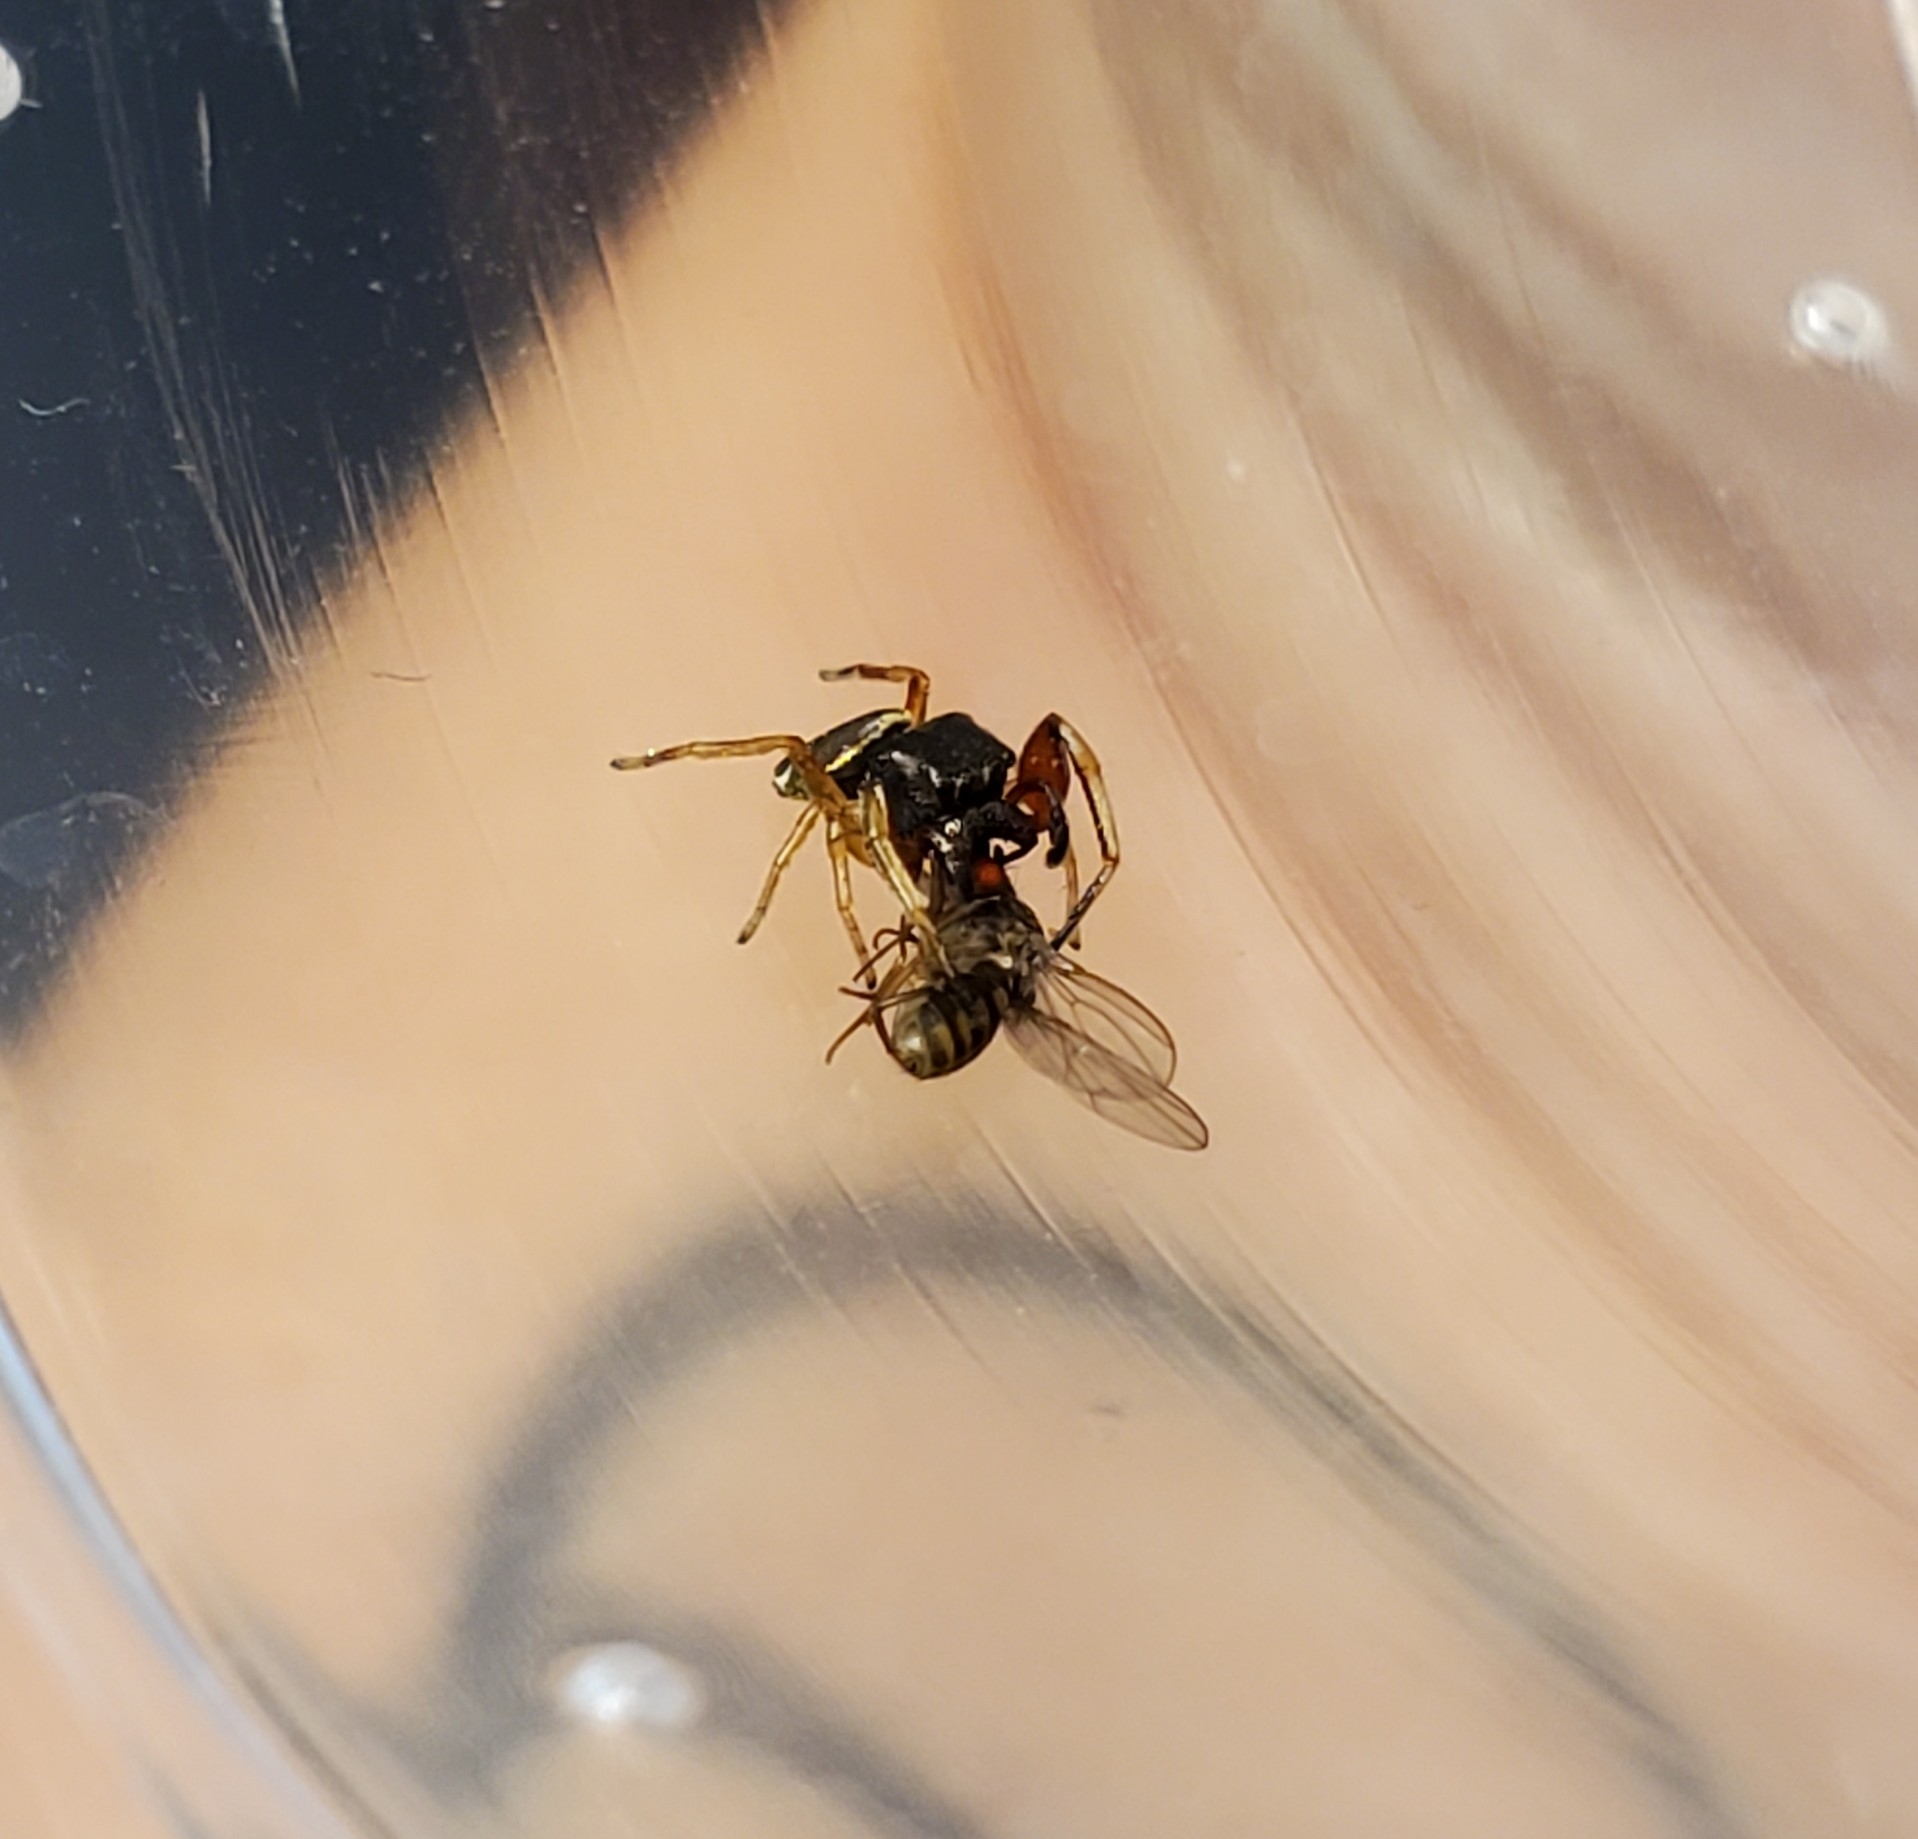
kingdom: Animalia
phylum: Arthropoda
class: Arachnida
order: Araneae
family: Salticidae
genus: Zygoballus
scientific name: Zygoballus rufipes
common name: Jumping spiders
